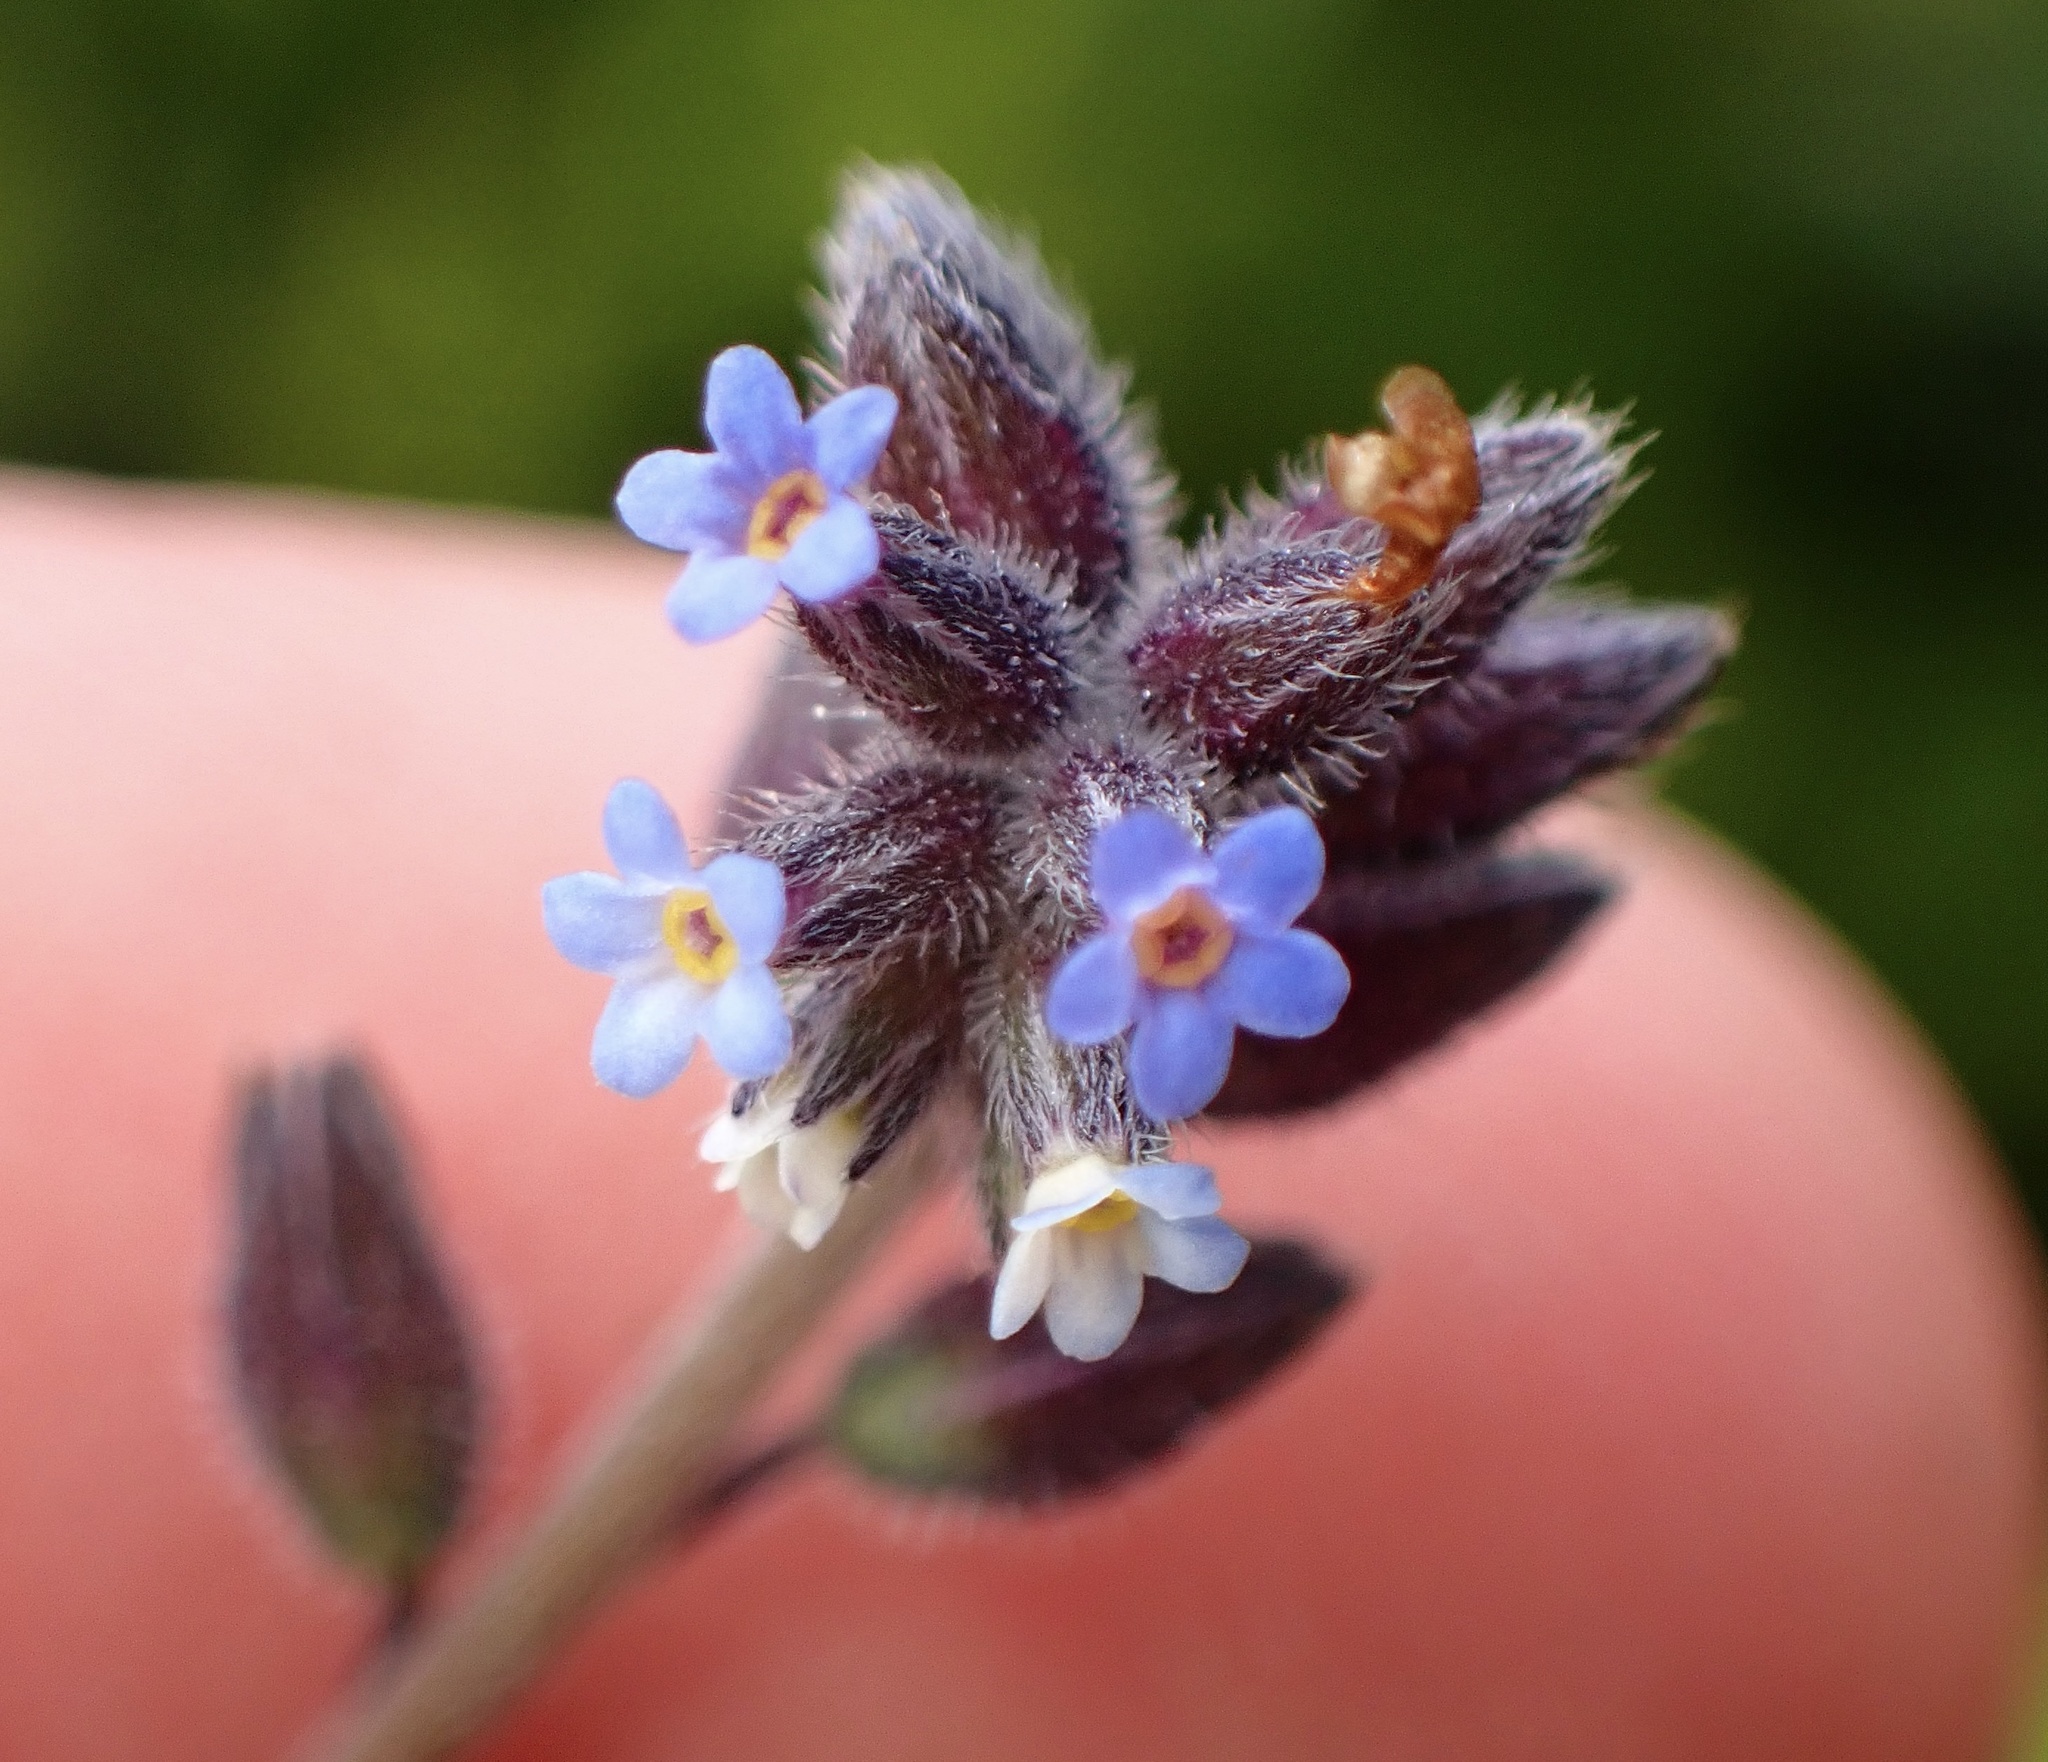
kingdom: Plantae
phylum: Tracheophyta
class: Magnoliopsida
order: Boraginales
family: Boraginaceae
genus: Myosotis
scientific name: Myosotis discolor
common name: Changing forget-me-not
